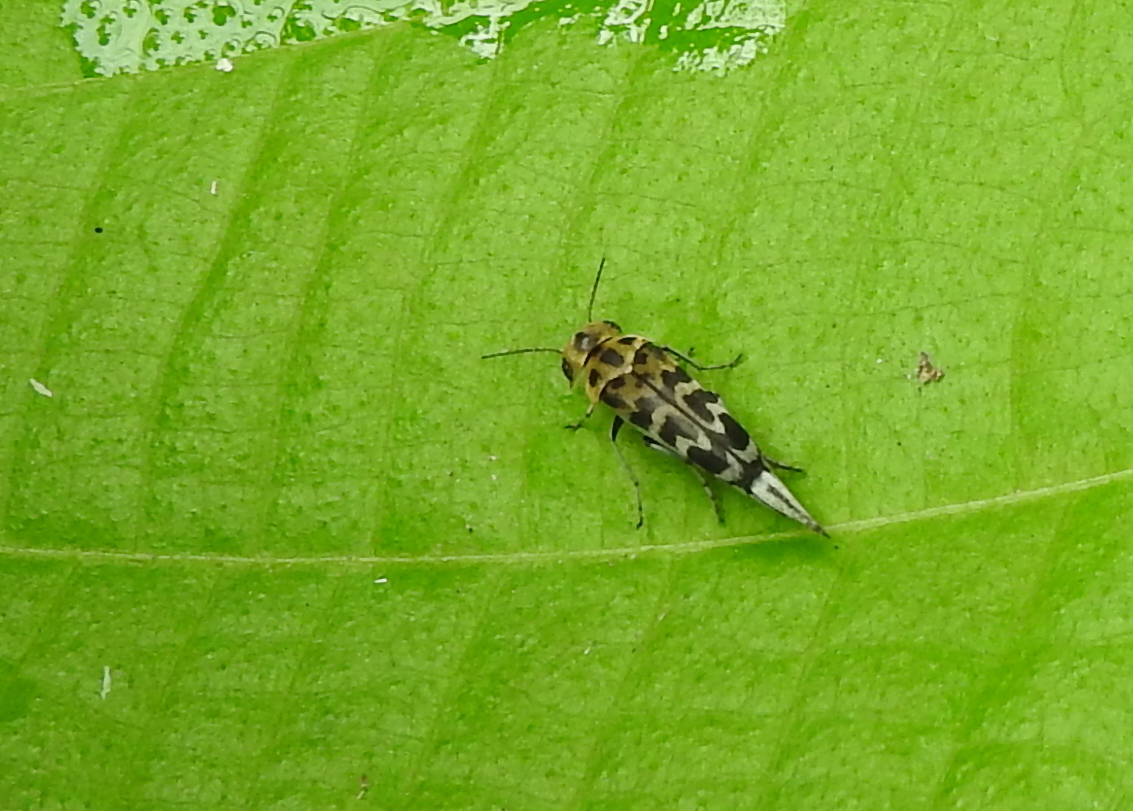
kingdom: Animalia
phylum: Arthropoda
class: Insecta
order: Coleoptera
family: Mordellidae
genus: Glipa
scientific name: Glipa
